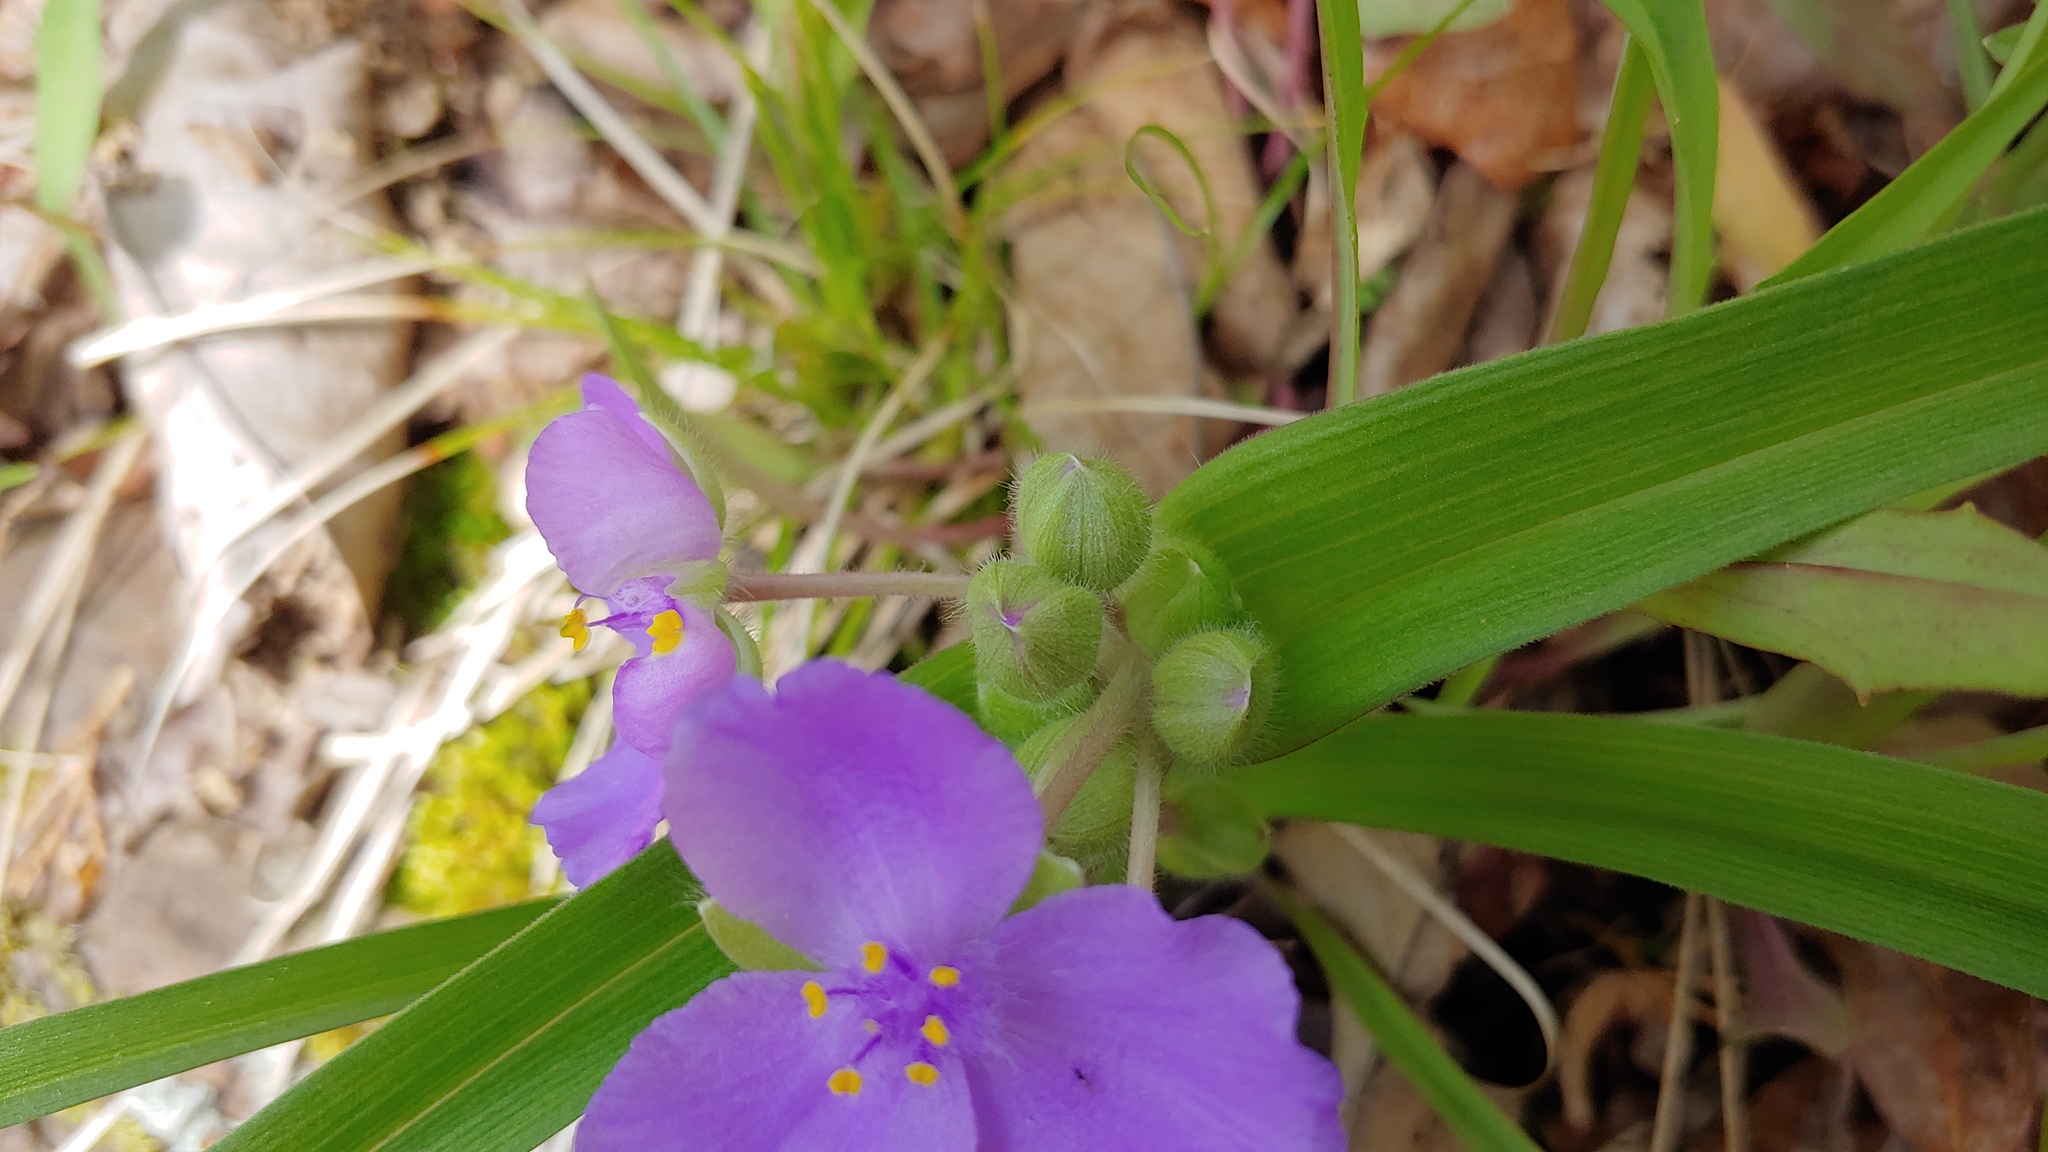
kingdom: Plantae
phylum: Tracheophyta
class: Liliopsida
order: Commelinales
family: Commelinaceae
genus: Tradescantia
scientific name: Tradescantia virginiana
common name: Spiderwort
